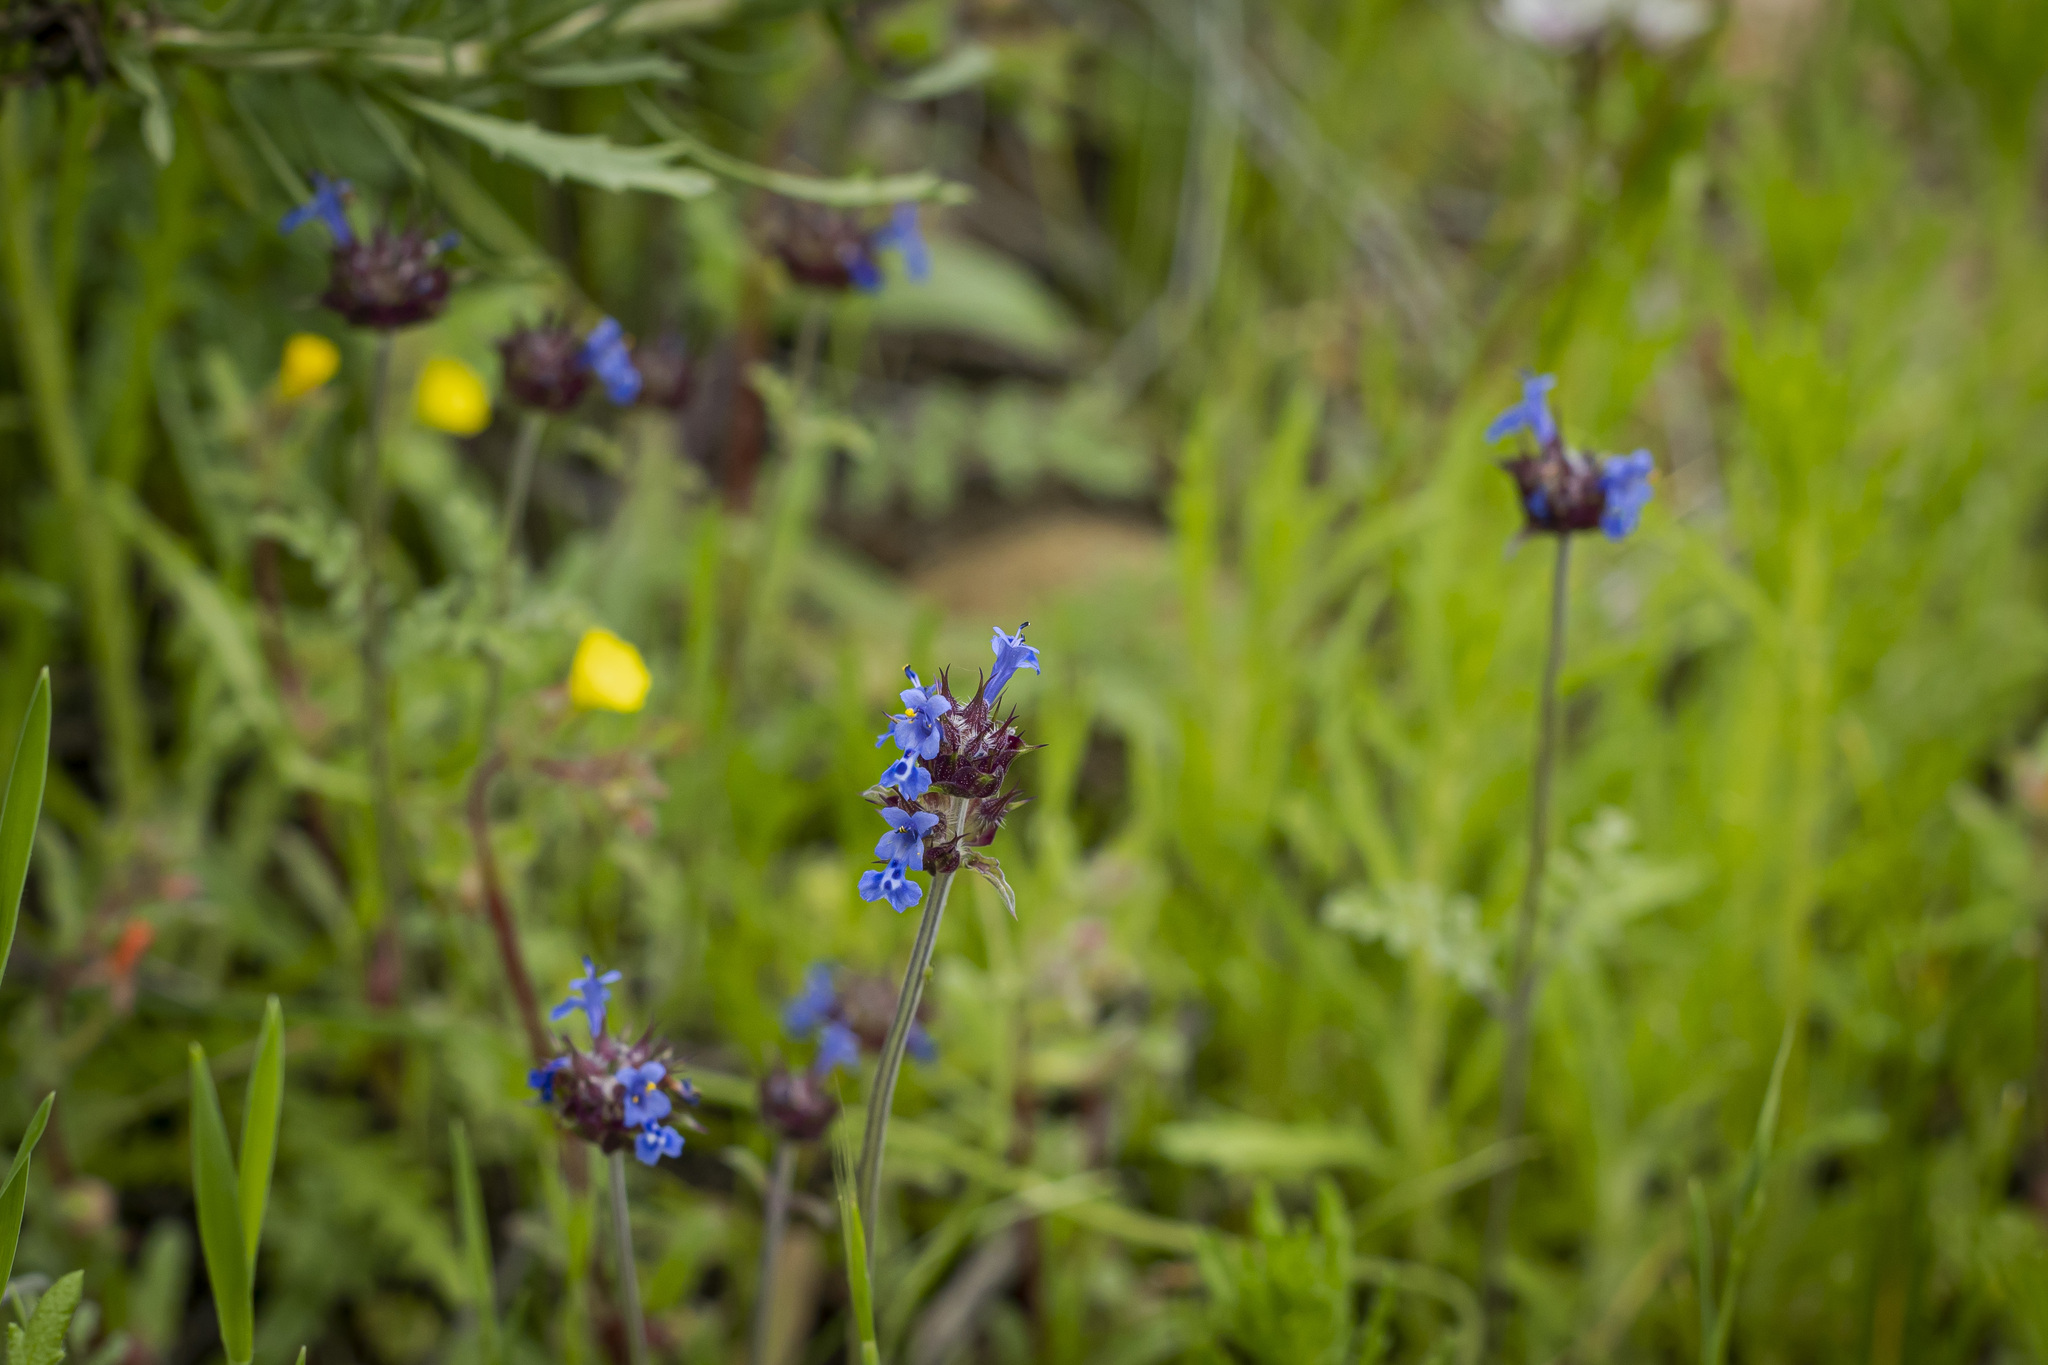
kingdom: Plantae
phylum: Tracheophyta
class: Magnoliopsida
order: Lamiales
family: Lamiaceae
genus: Salvia
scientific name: Salvia columbariae
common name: Chia
